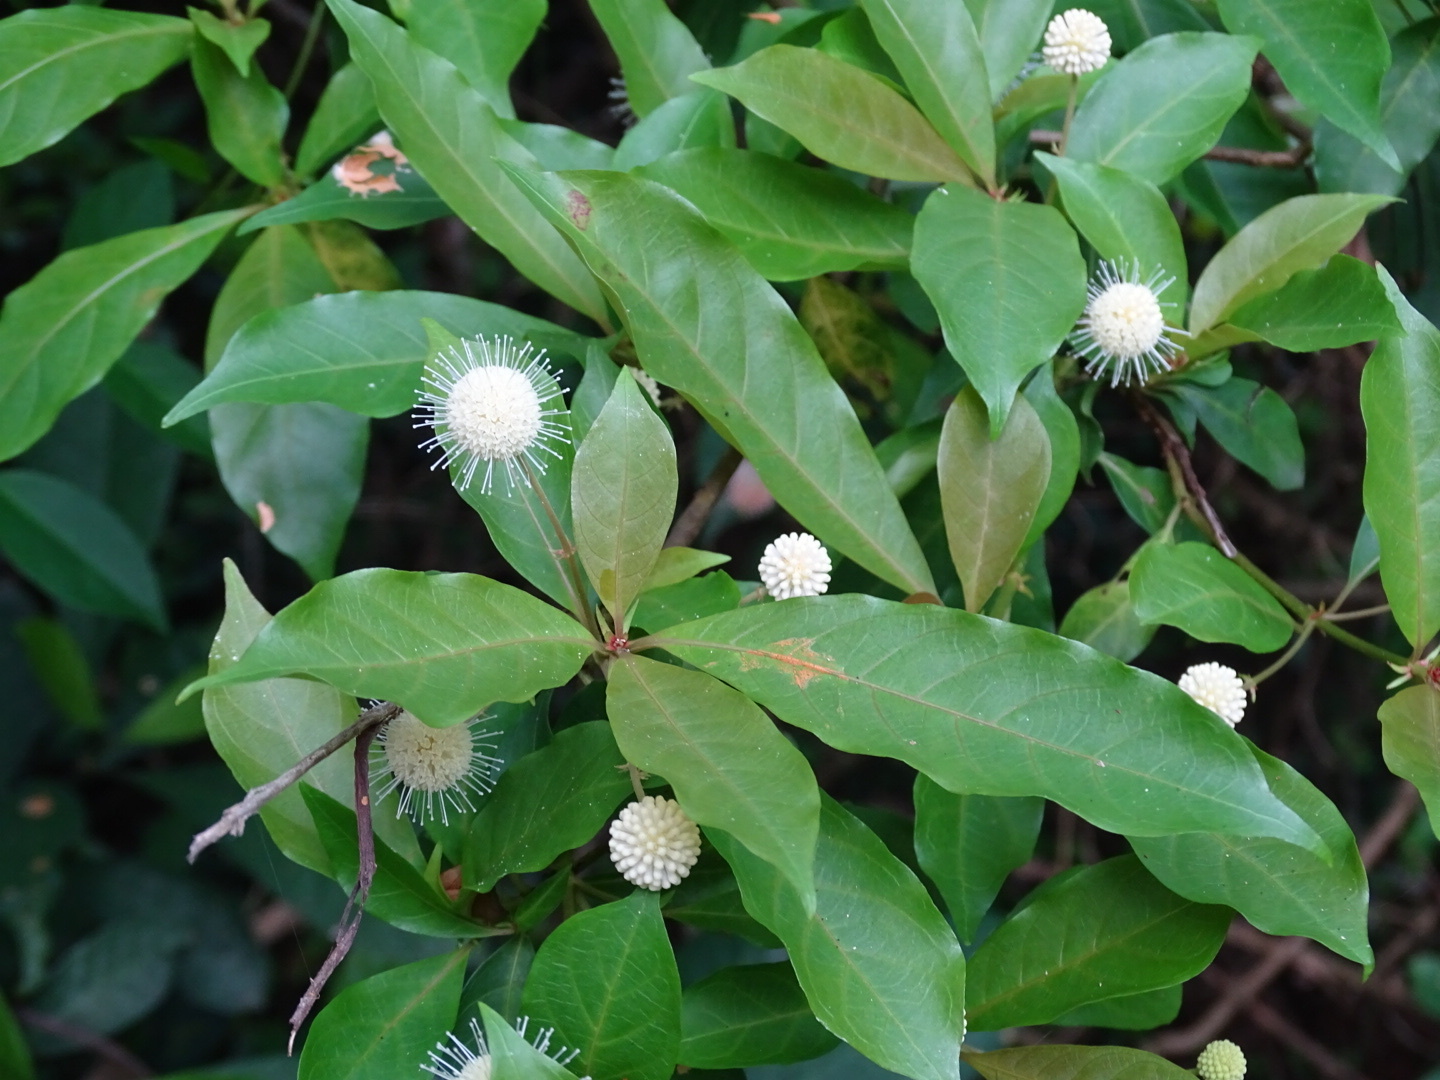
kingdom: Plantae
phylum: Tracheophyta
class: Magnoliopsida
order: Gentianales
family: Rubiaceae
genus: Adina
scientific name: Adina pilulifera
